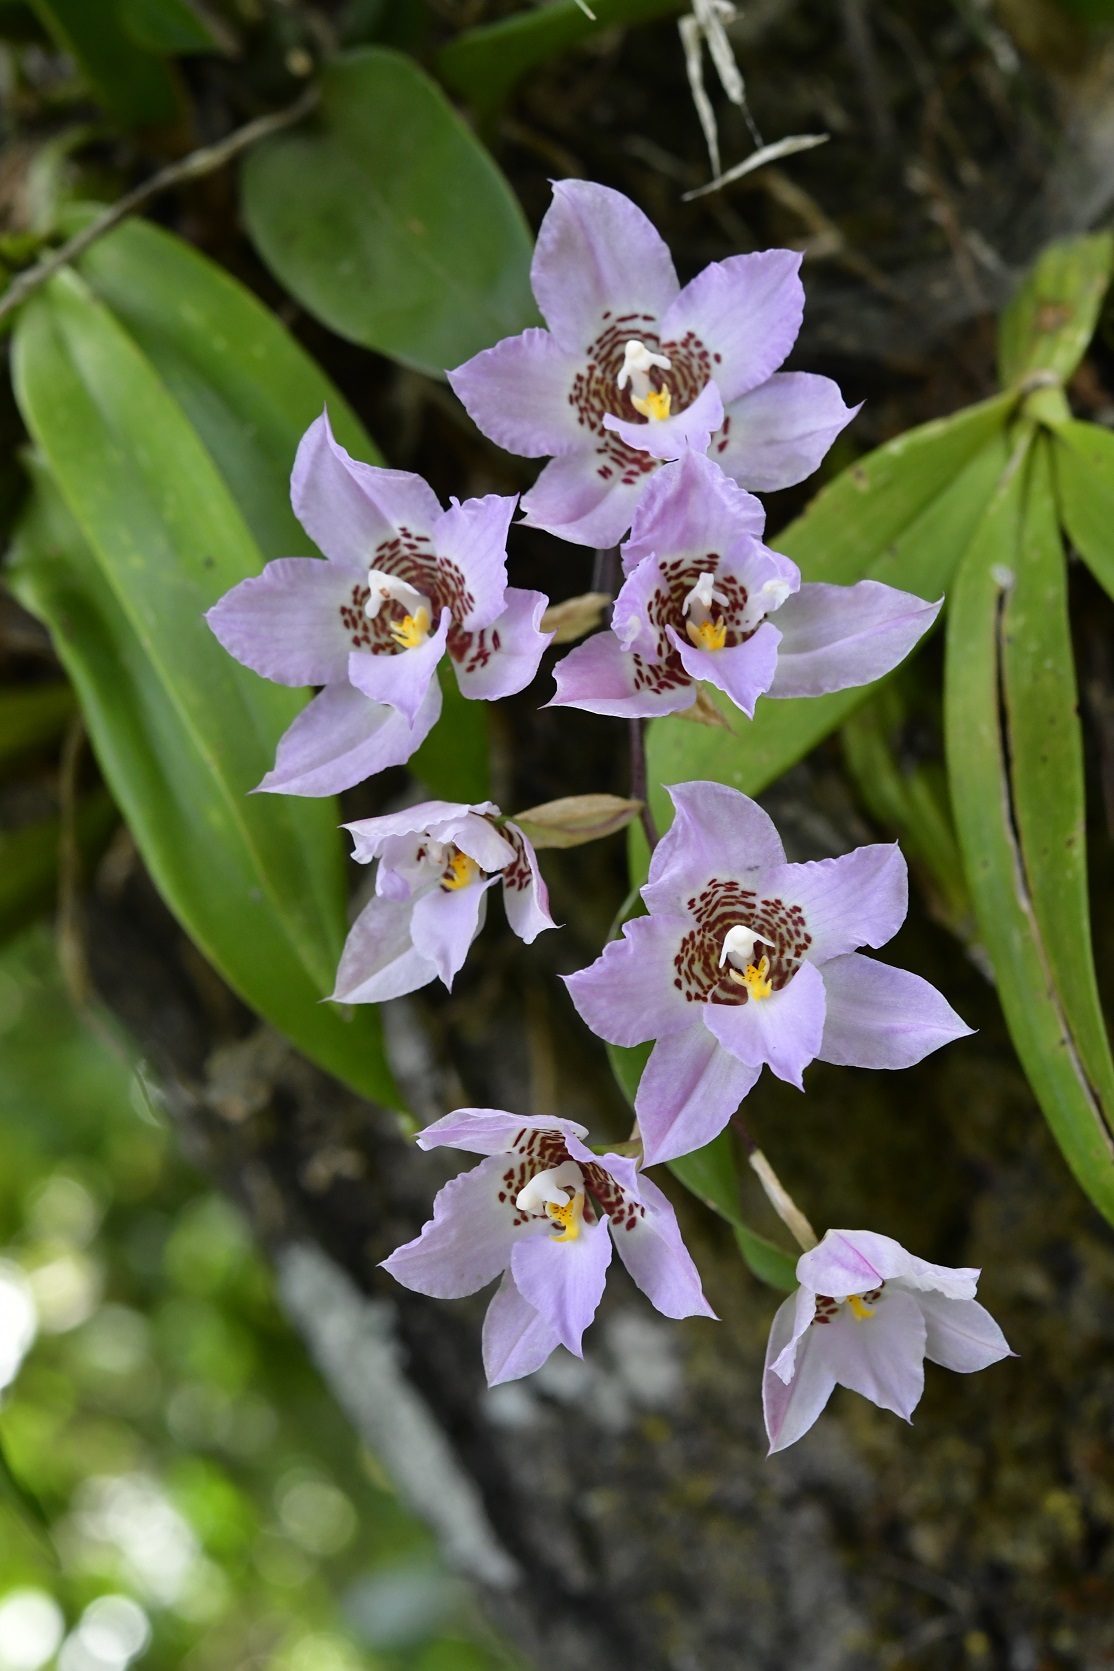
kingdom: Plantae
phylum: Tracheophyta
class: Liliopsida
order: Asparagales
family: Orchidaceae
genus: Rhynchostele
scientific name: Rhynchostele cervantesii
